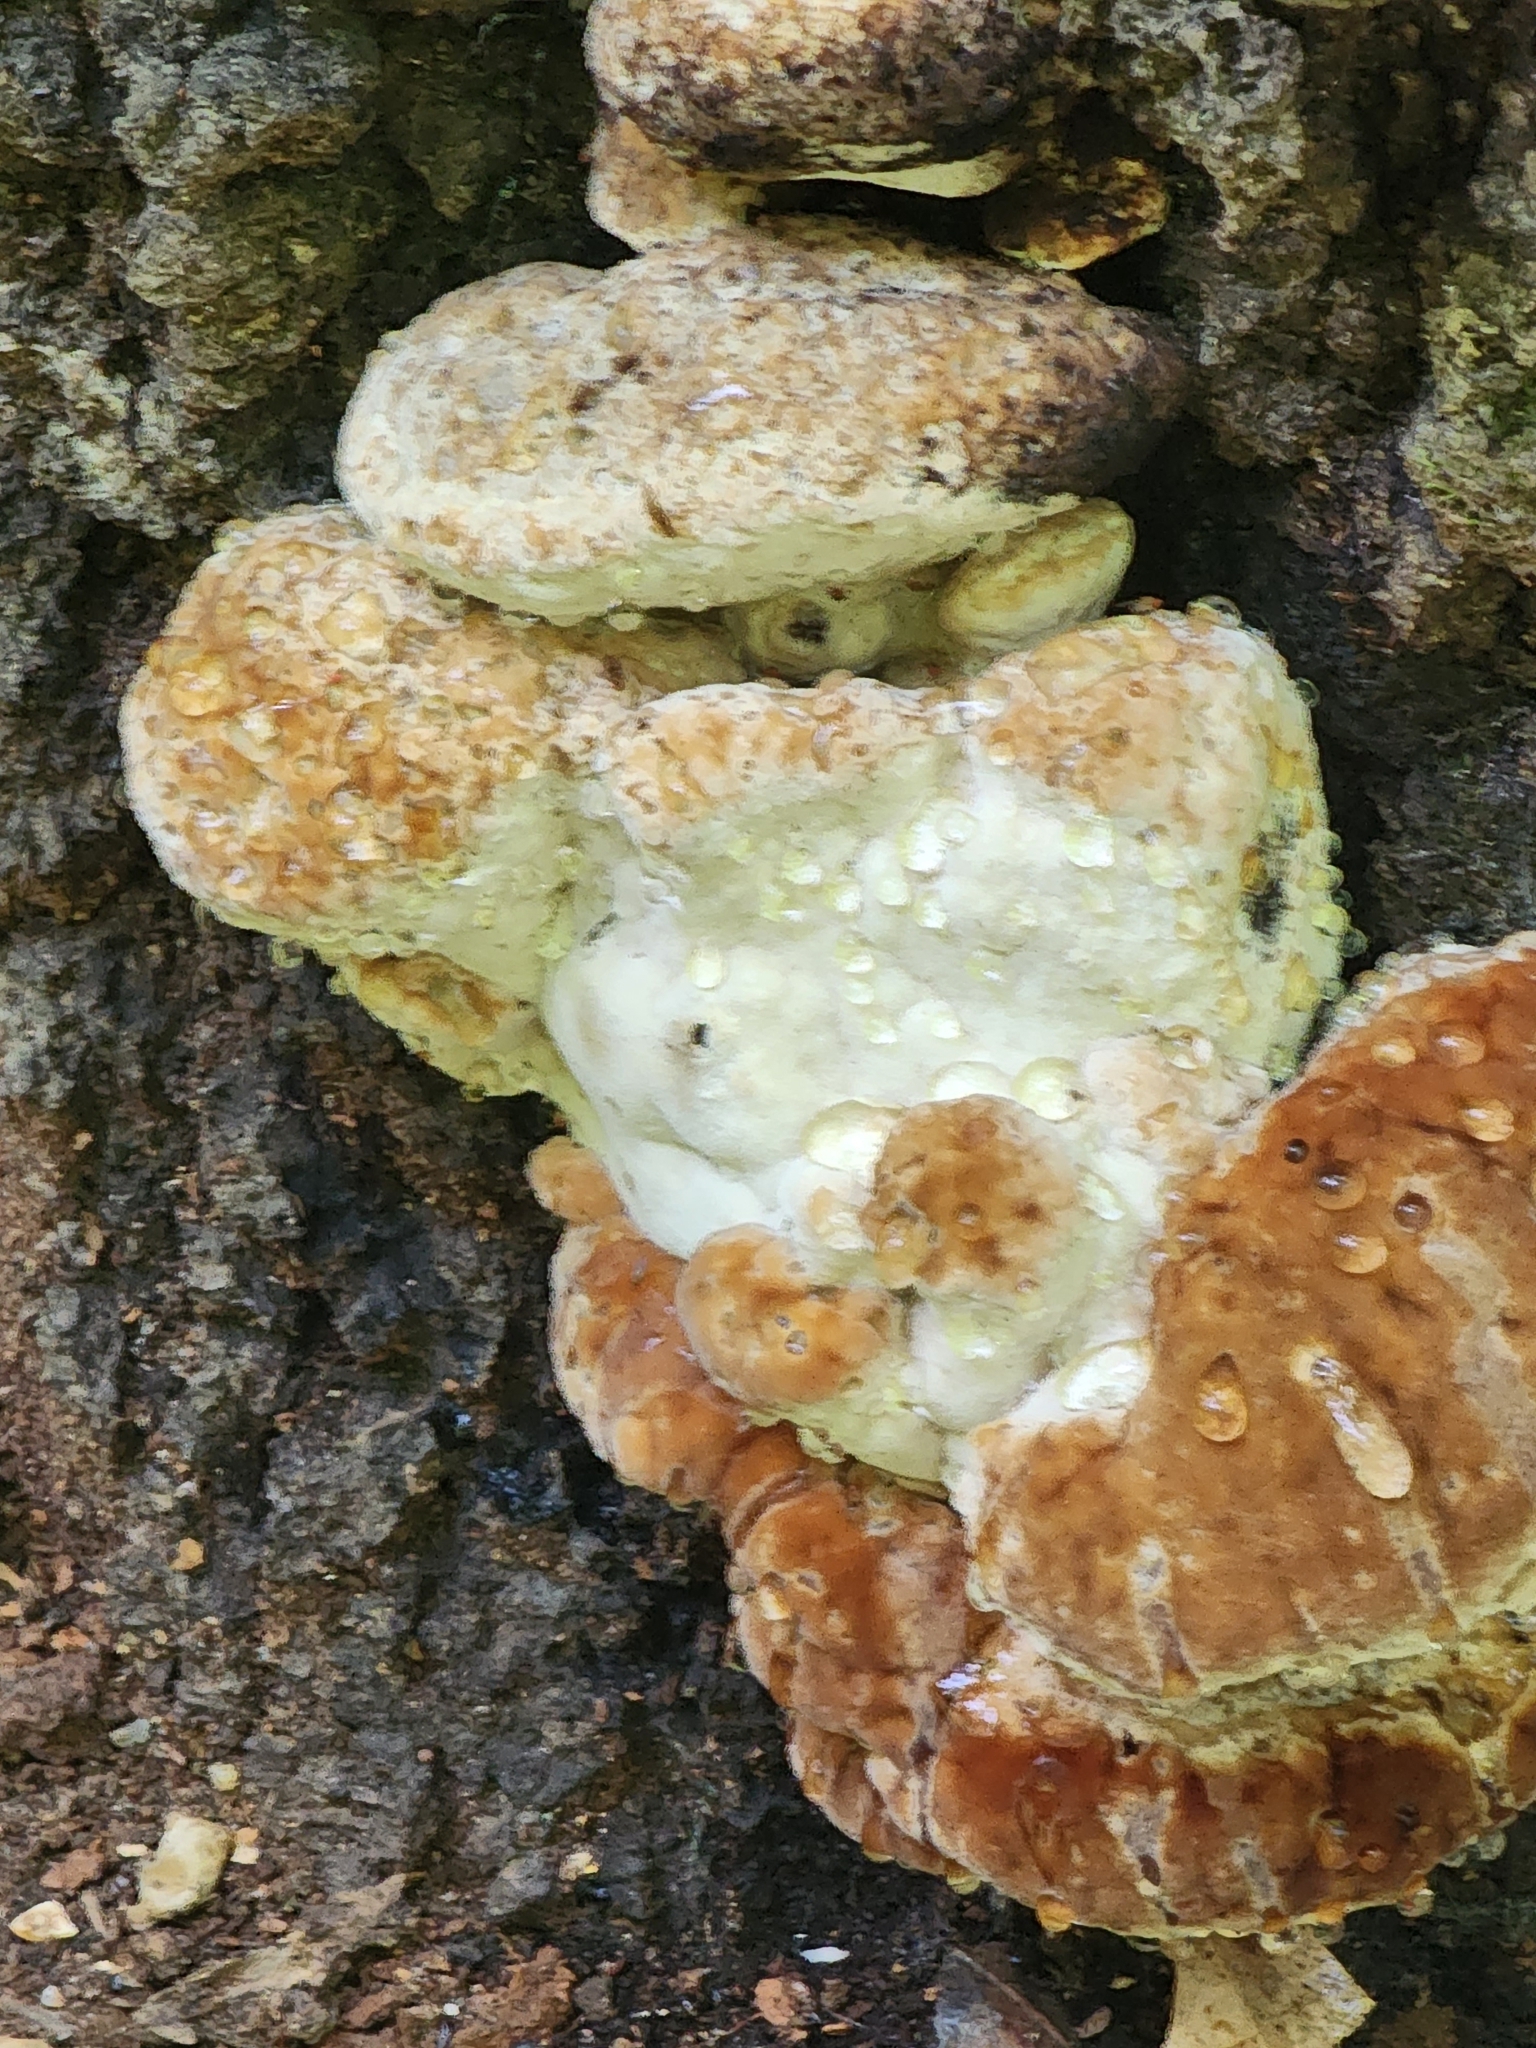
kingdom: Fungi
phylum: Basidiomycota
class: Agaricomycetes
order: Polyporales
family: Fomitopsidaceae
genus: Niveoporofomes
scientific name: Niveoporofomes spraguei
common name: Green cheese polypore
